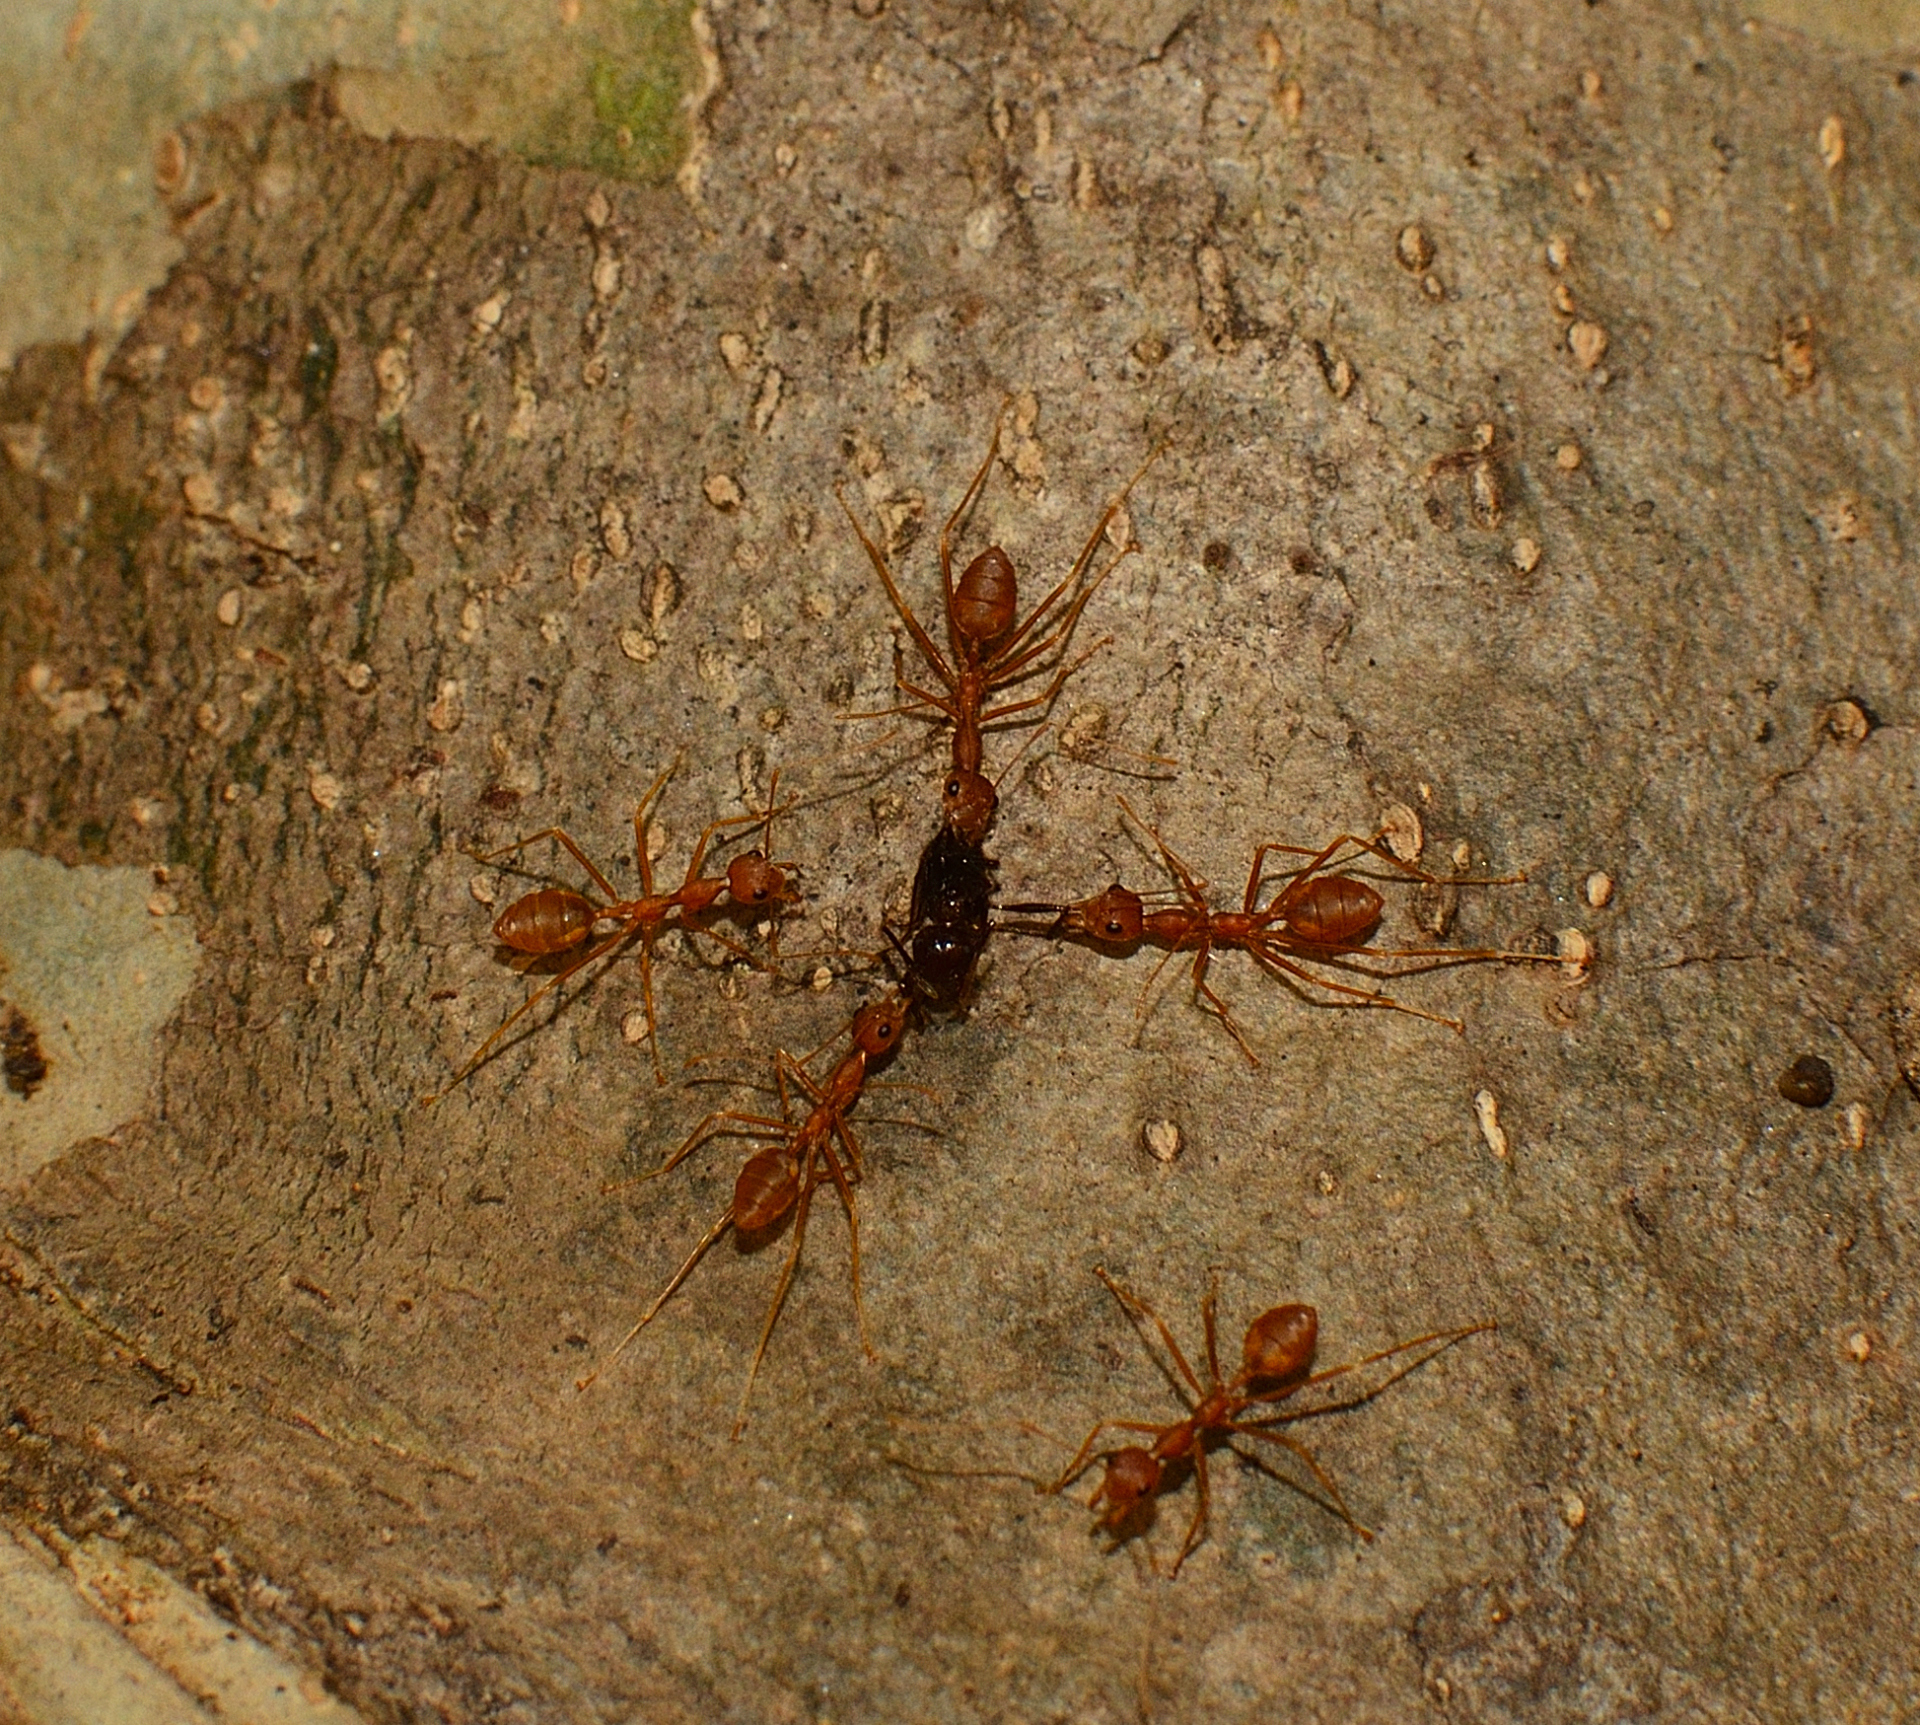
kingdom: Animalia
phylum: Arthropoda
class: Insecta
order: Hymenoptera
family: Formicidae
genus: Oecophylla
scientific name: Oecophylla smaragdina
